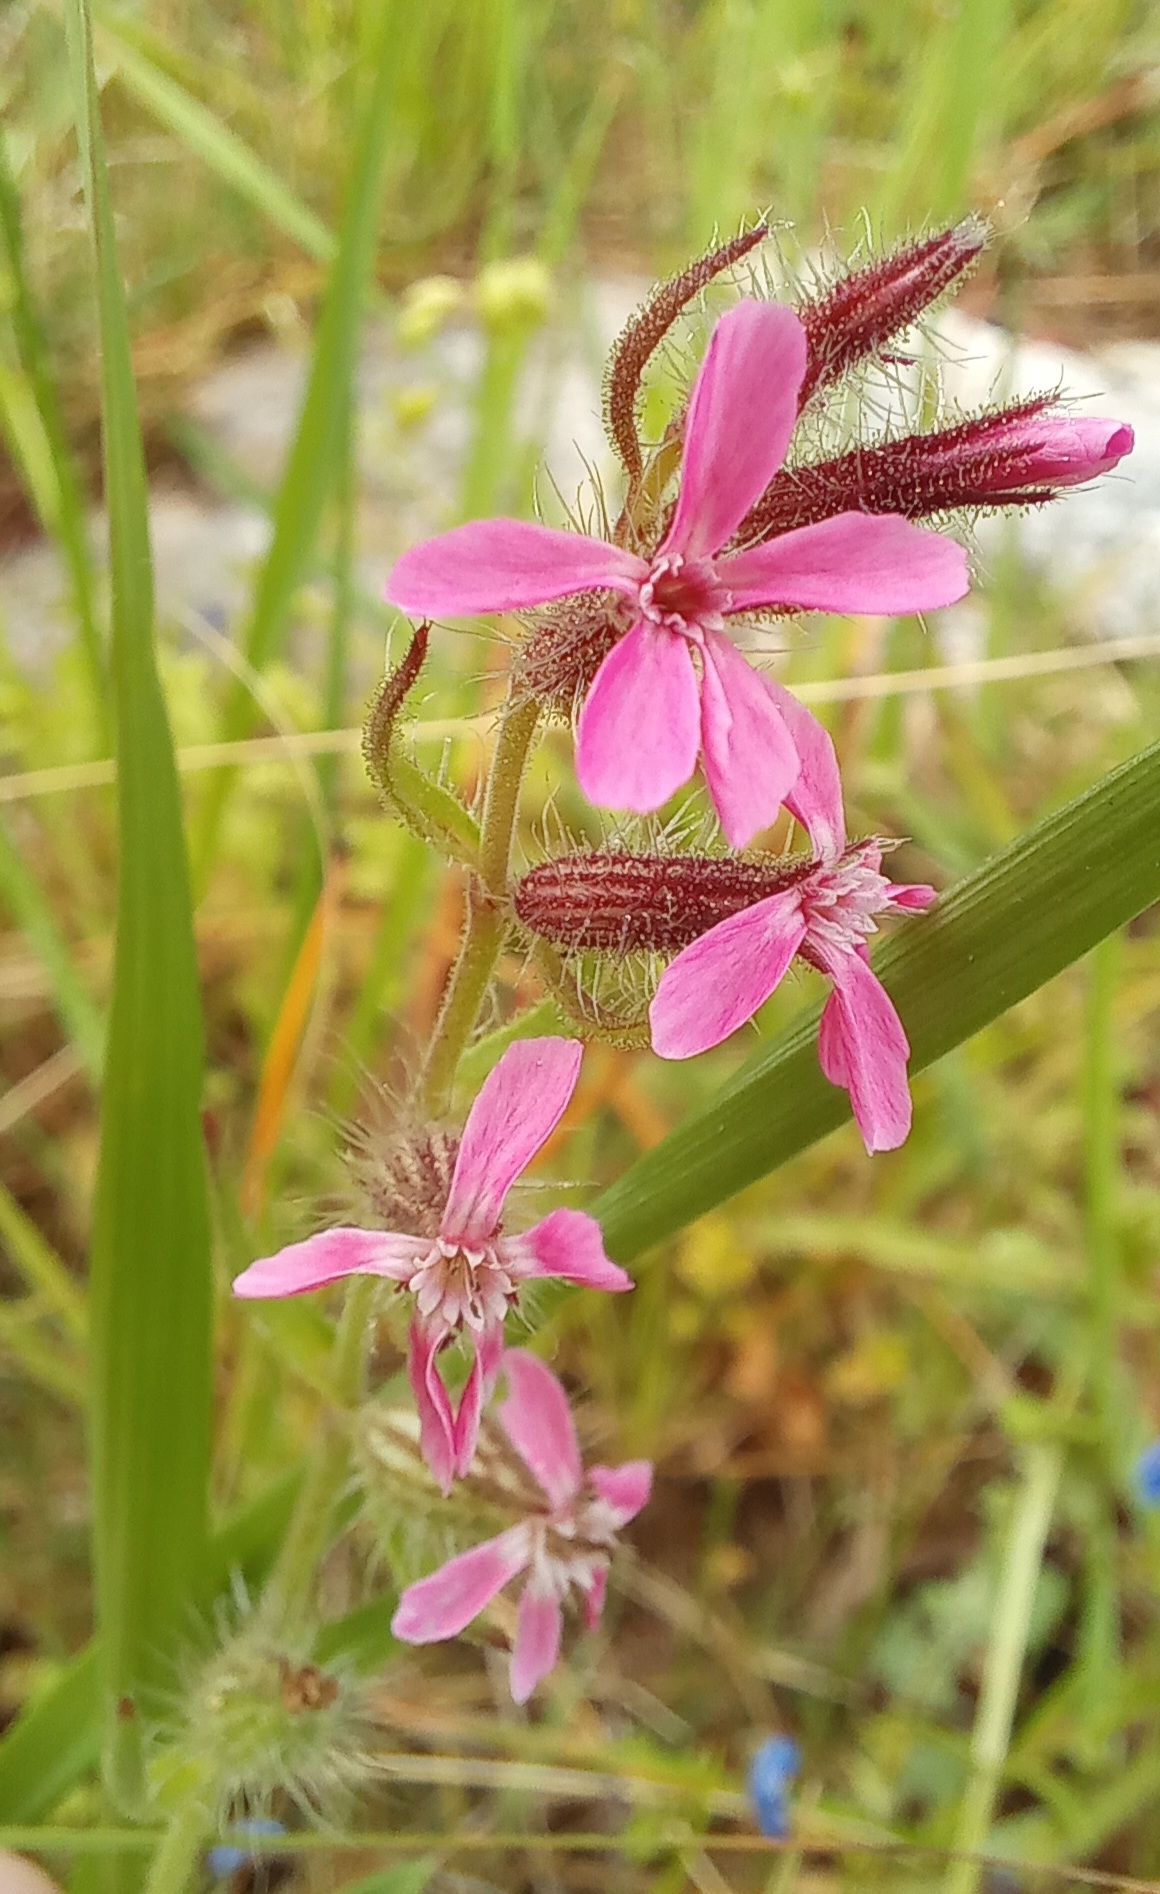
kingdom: Plantae
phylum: Tracheophyta
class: Magnoliopsida
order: Caryophyllales
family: Caryophyllaceae
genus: Silene
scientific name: Silene gallica
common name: Small-flowered catchfly
